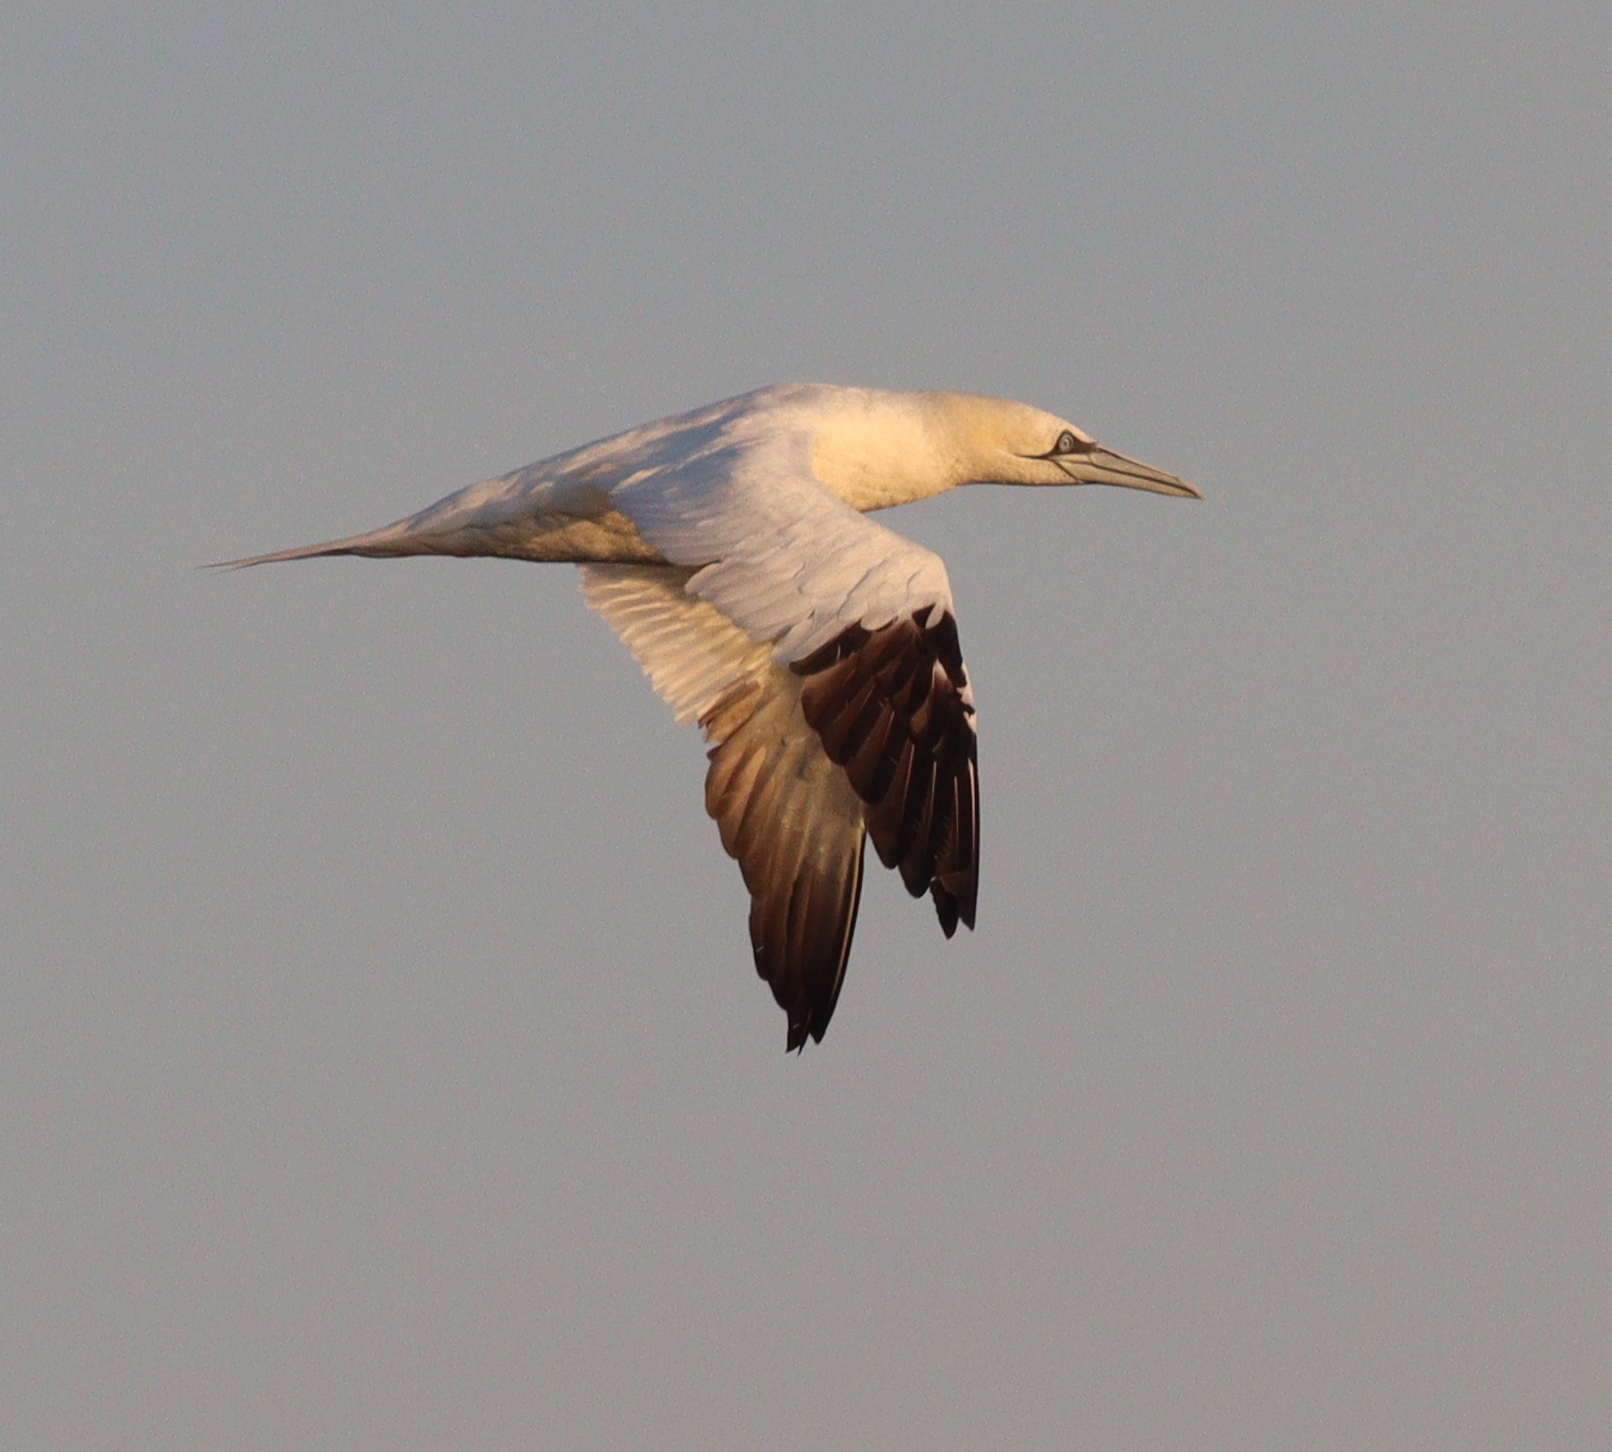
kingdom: Animalia
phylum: Chordata
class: Aves
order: Suliformes
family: Sulidae
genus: Morus
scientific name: Morus bassanus
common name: Northern gannet
